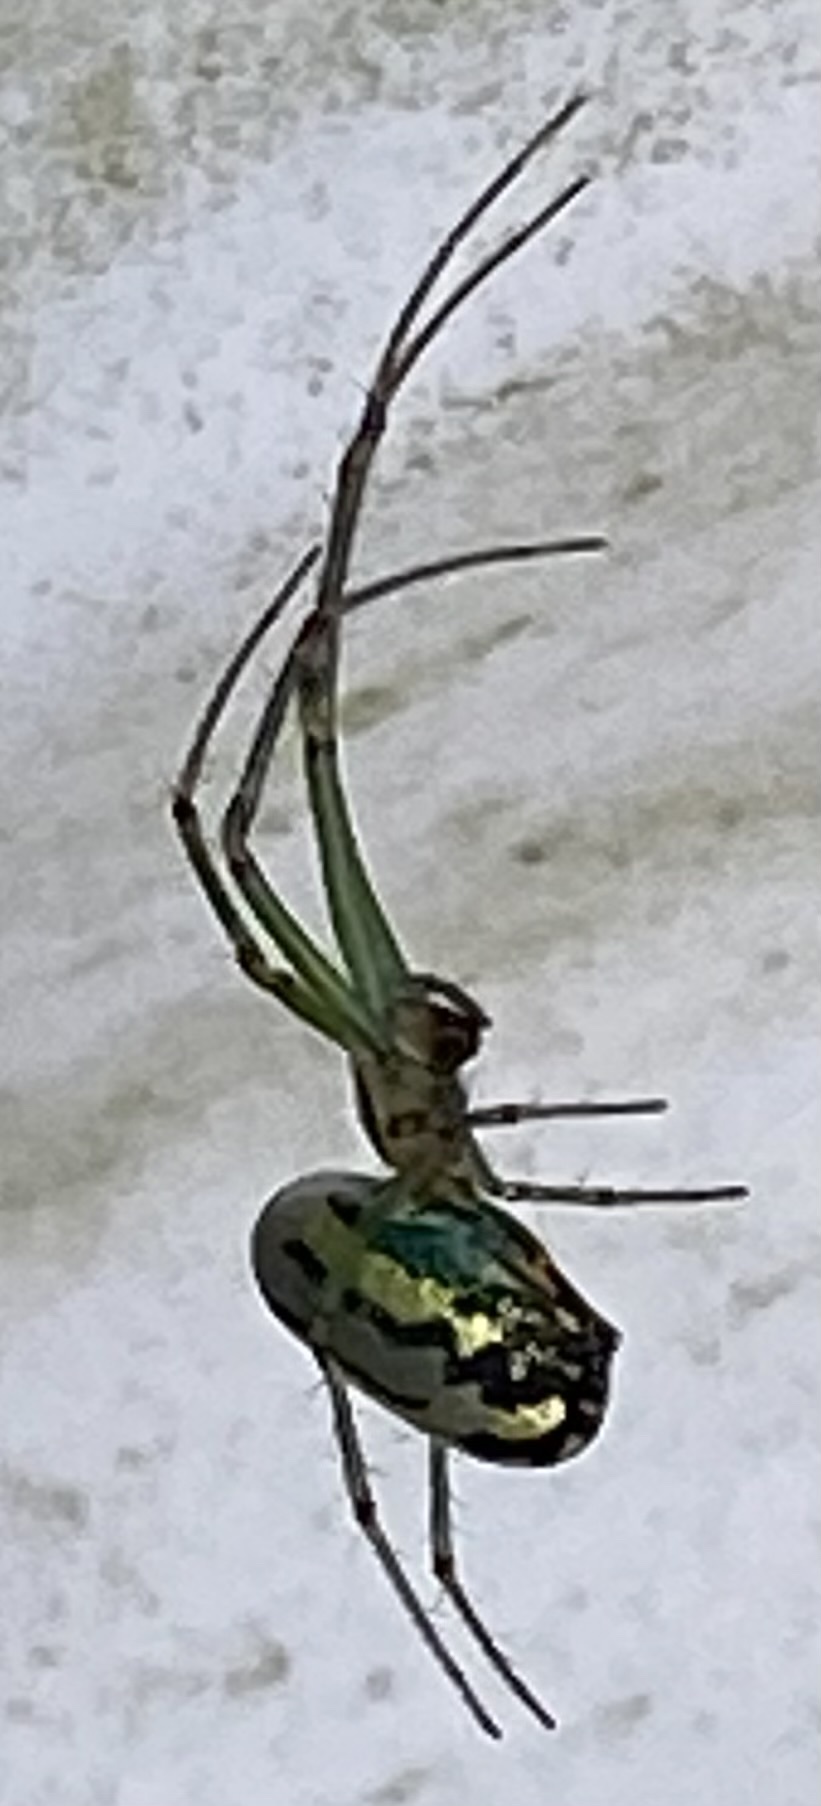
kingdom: Animalia
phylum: Arthropoda
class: Arachnida
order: Araneae
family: Tetragnathidae
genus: Leucauge
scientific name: Leucauge venusta
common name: Longjawed orb weavers
